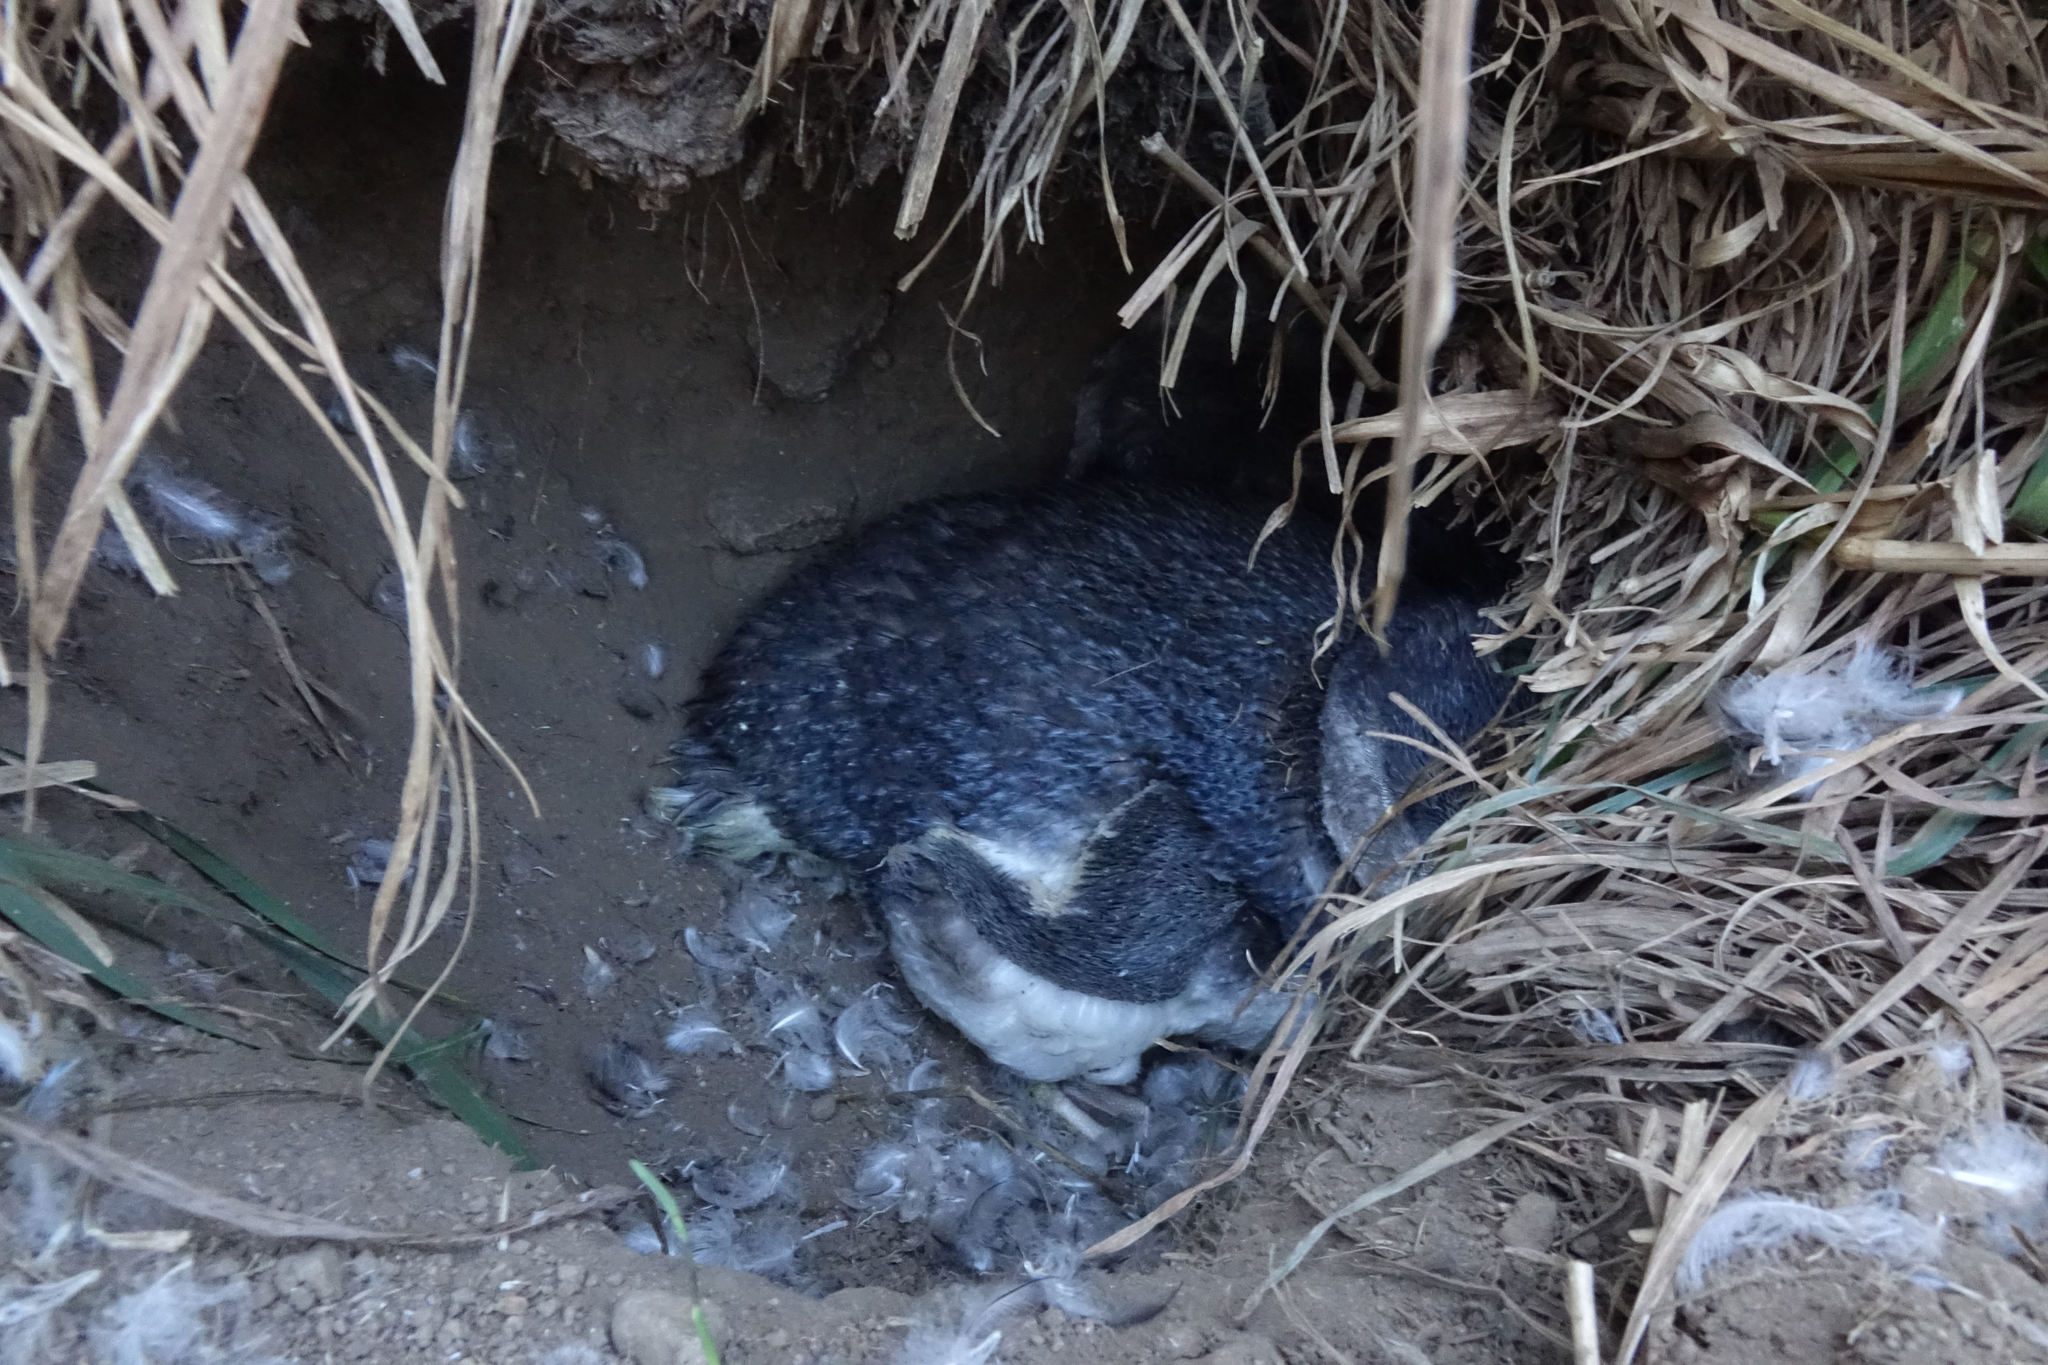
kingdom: Animalia
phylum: Chordata
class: Aves
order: Sphenisciformes
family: Spheniscidae
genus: Eudyptula
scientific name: Eudyptula minor
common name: Little penguin
